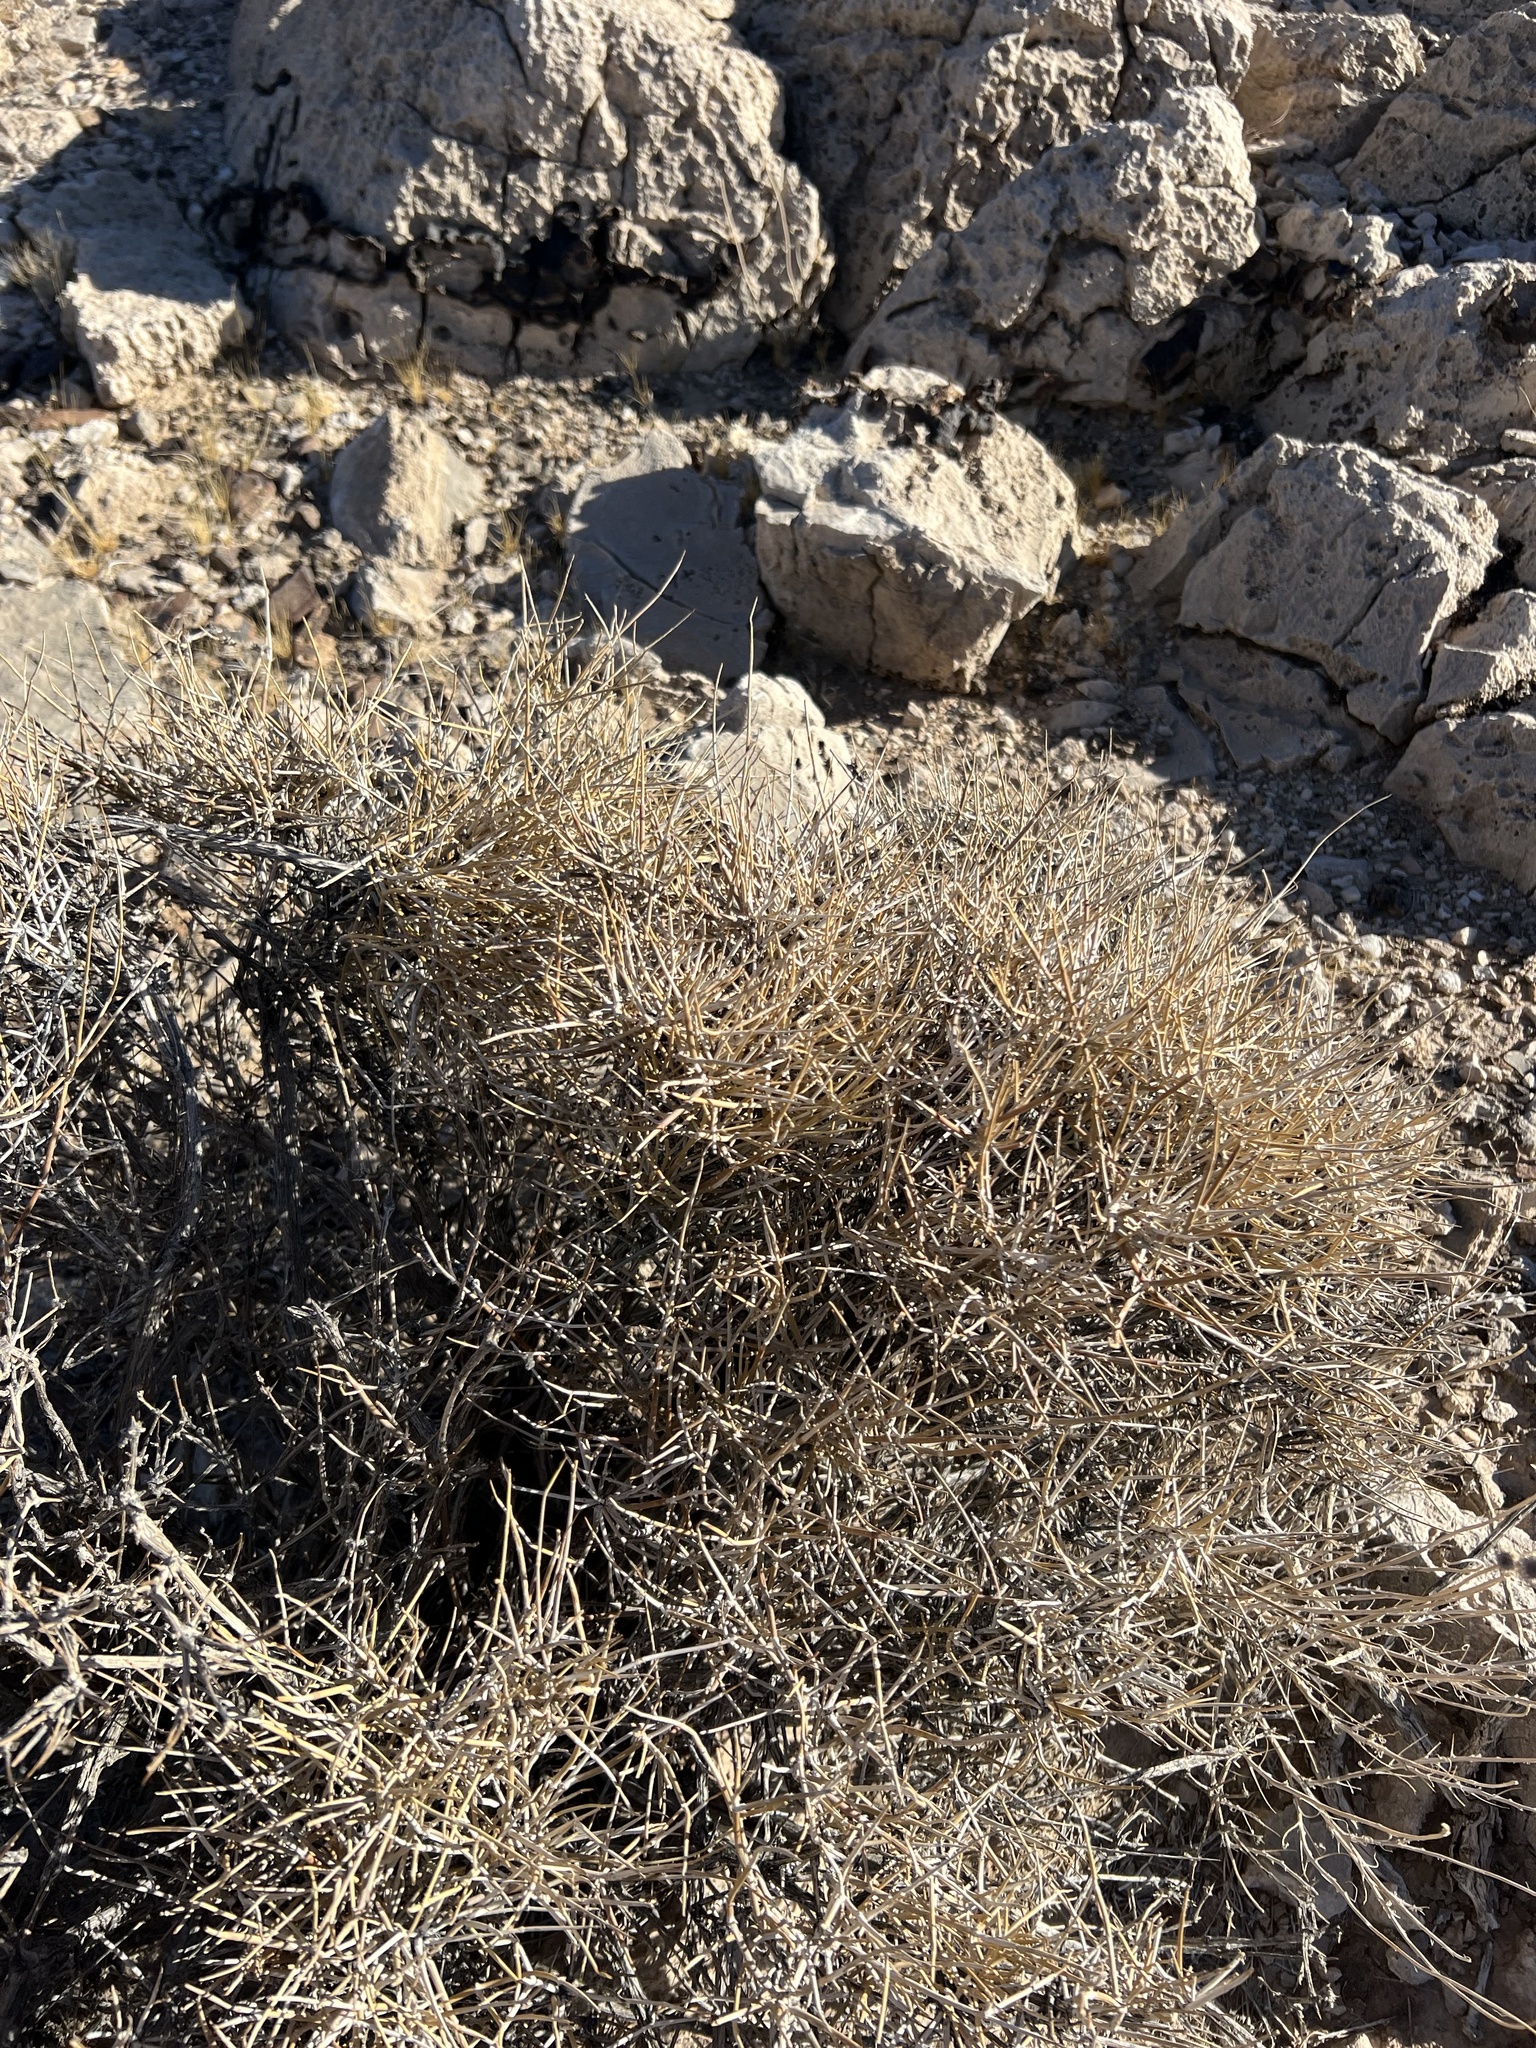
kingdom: Plantae
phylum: Tracheophyta
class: Gnetopsida
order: Ephedrales
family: Ephedraceae
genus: Ephedra
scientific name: Ephedra nevadensis
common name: Gray ephedra
